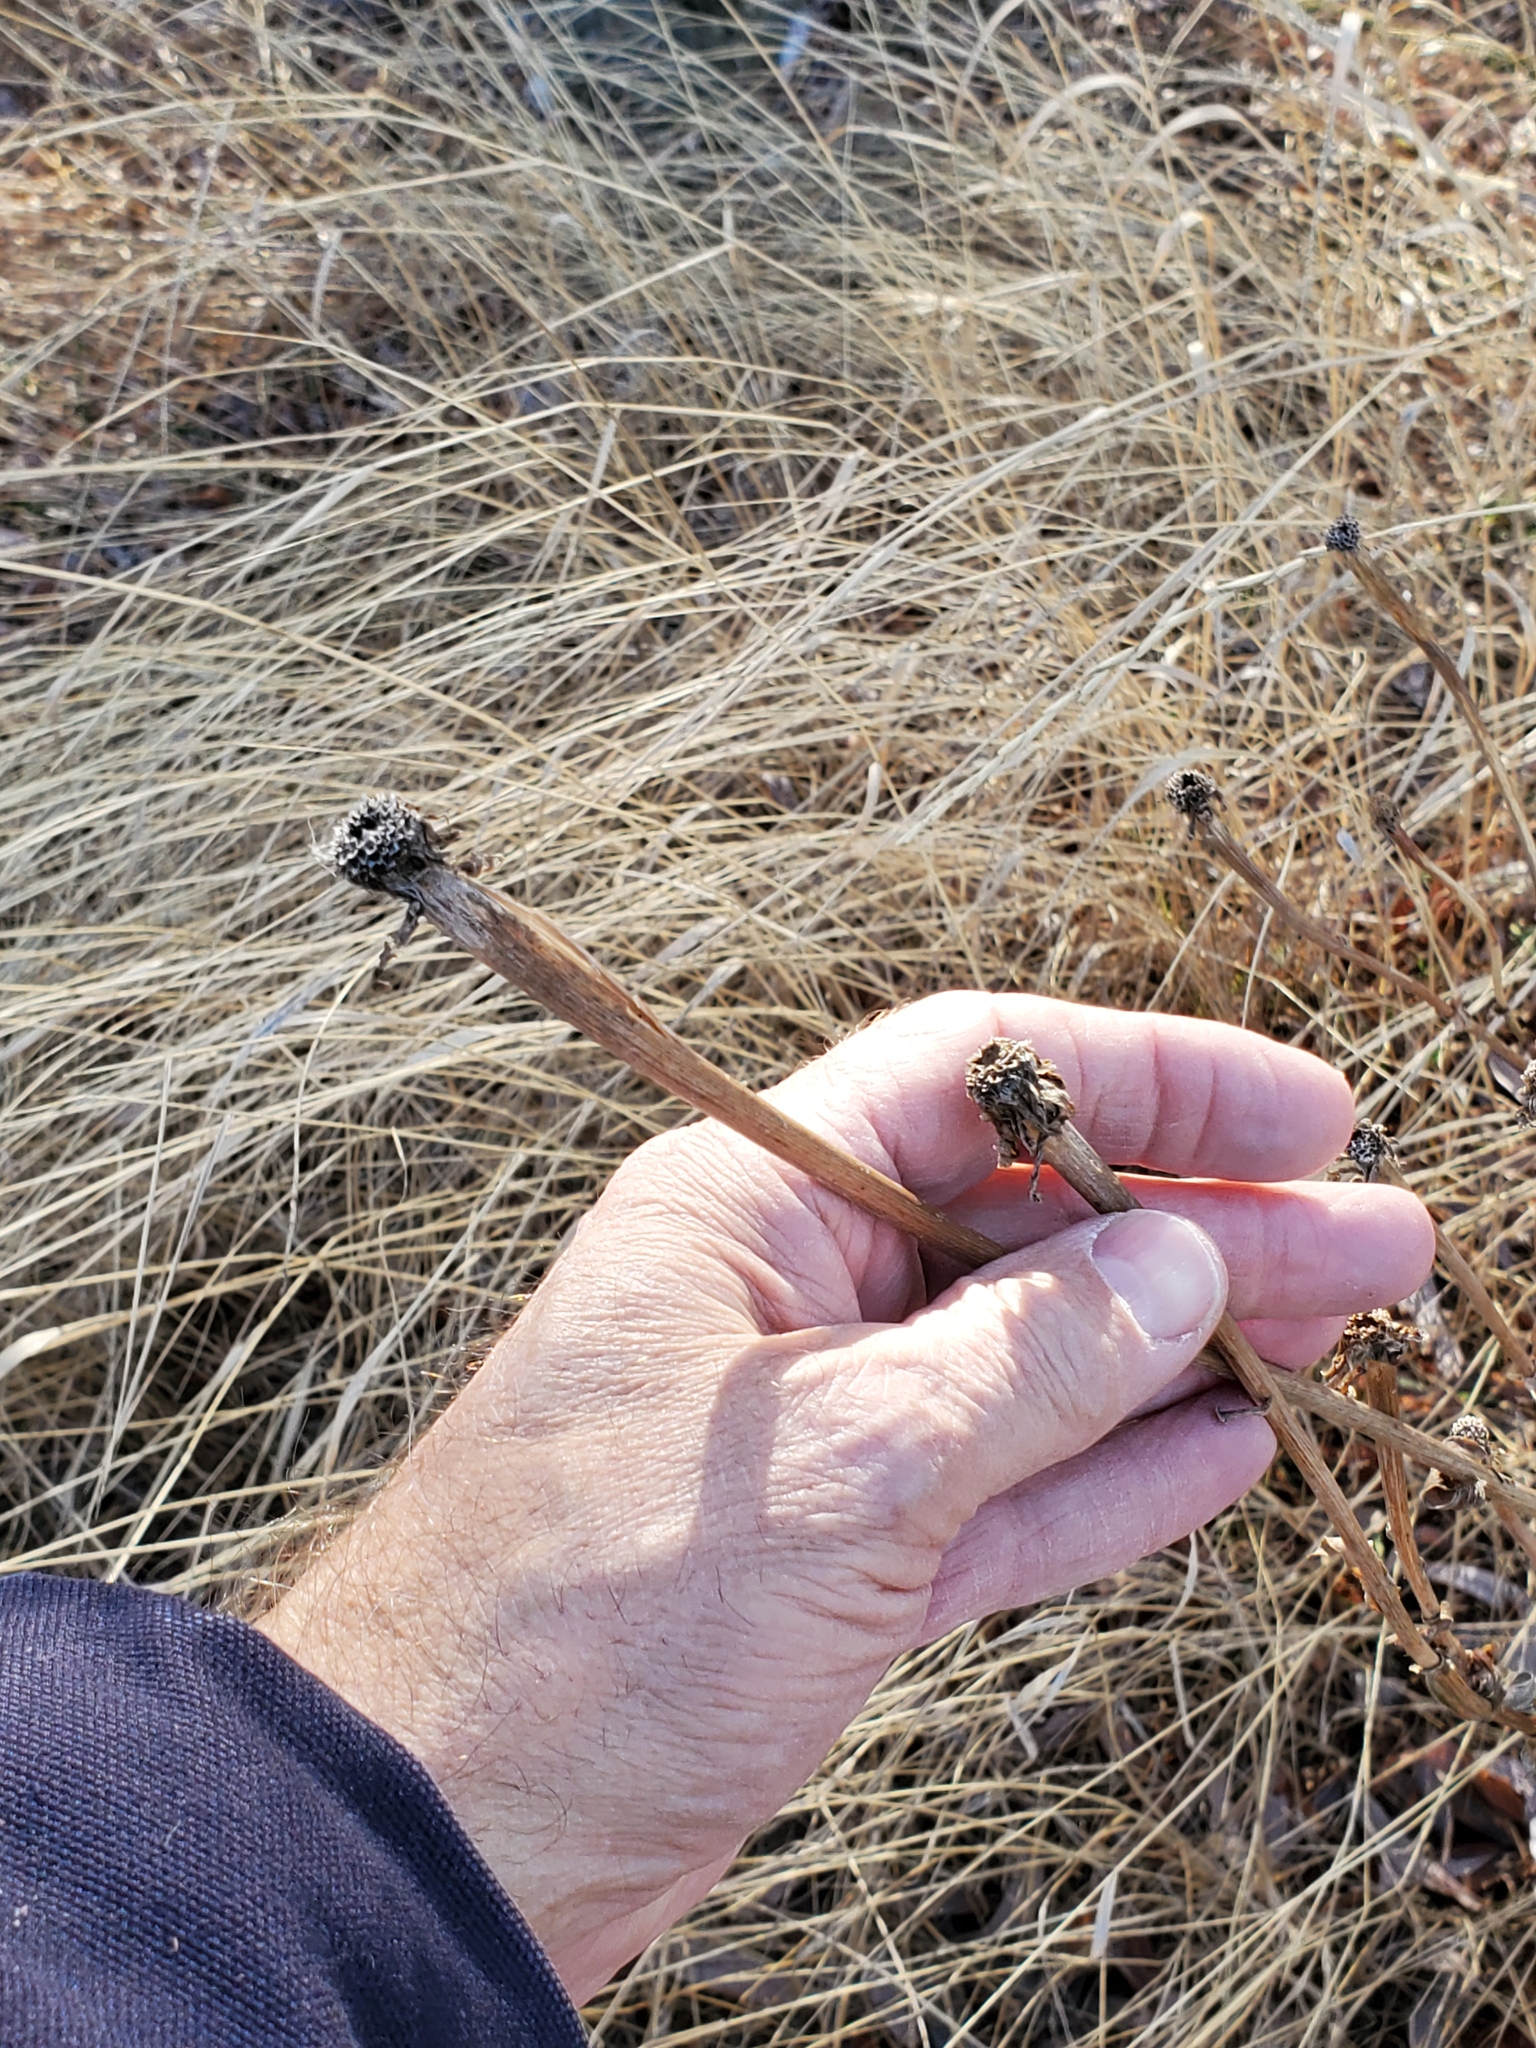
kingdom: Plantae
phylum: Tracheophyta
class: Magnoliopsida
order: Asterales
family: Asteraceae
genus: Tragopogon
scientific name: Tragopogon dubius
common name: Yellow salsify
